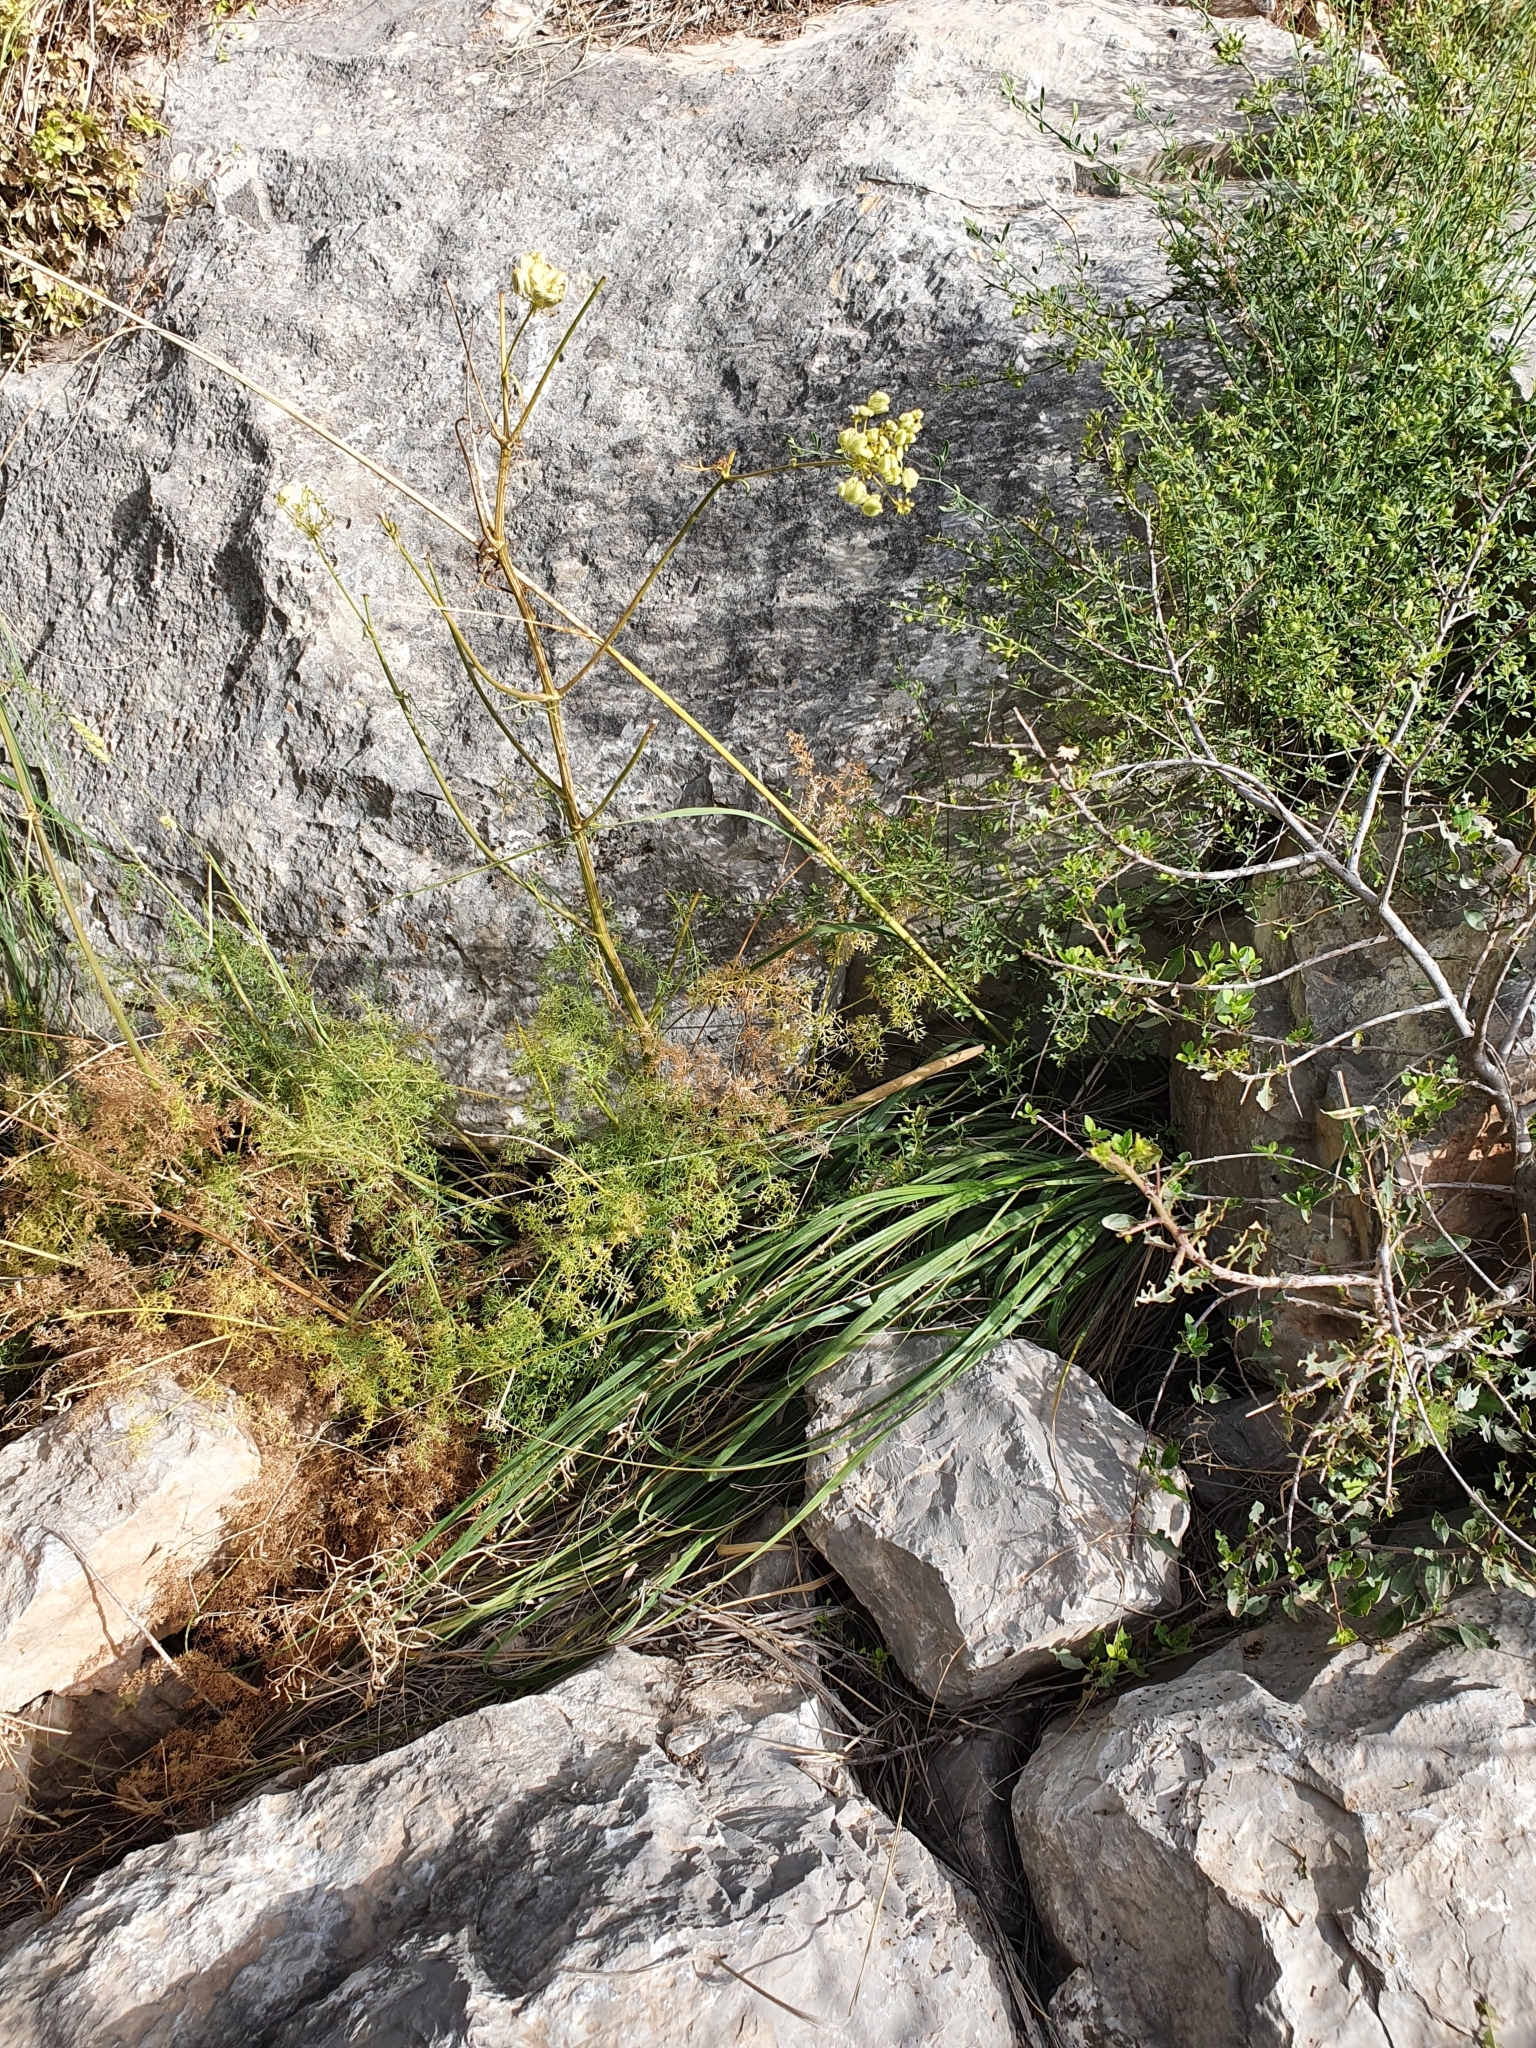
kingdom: Plantae
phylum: Tracheophyta
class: Magnoliopsida
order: Apiales
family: Apiaceae
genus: Ferulago
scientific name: Ferulago lutea
